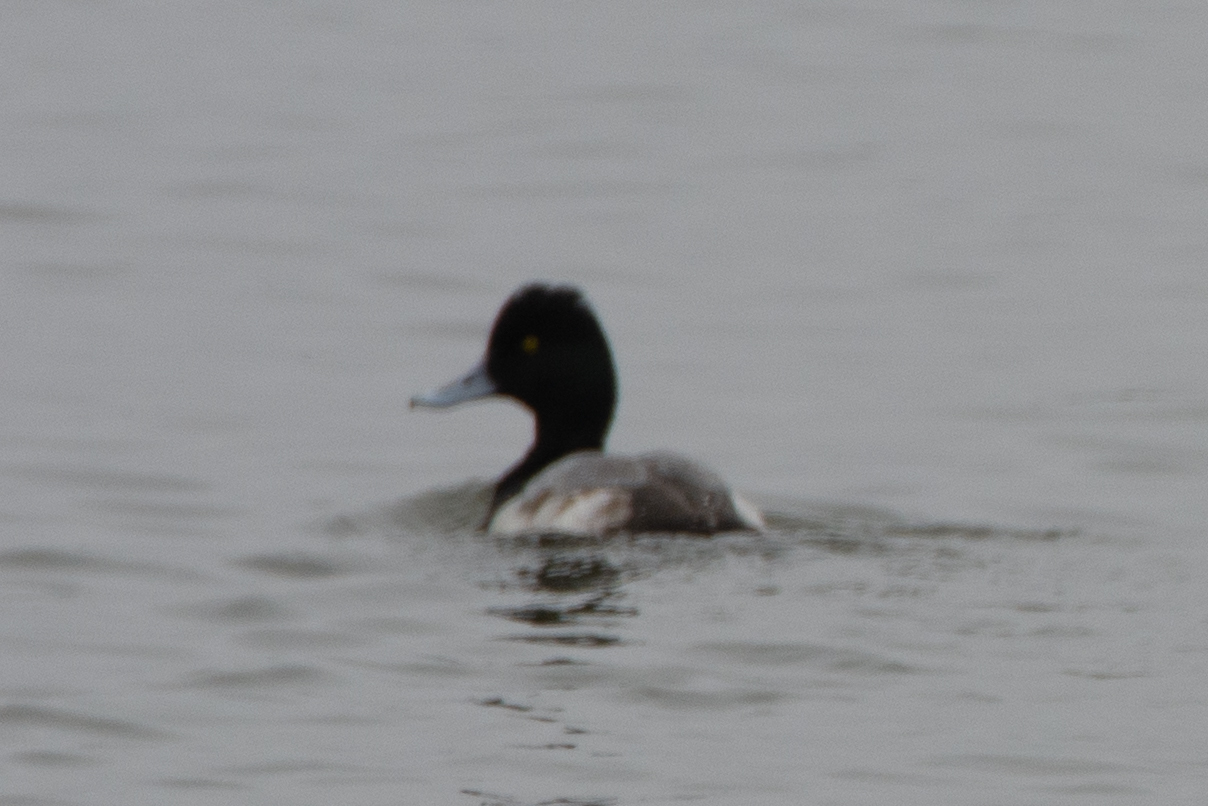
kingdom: Animalia
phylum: Chordata
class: Aves
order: Anseriformes
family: Anatidae
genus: Aythya
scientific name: Aythya affinis
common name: Lesser scaup
